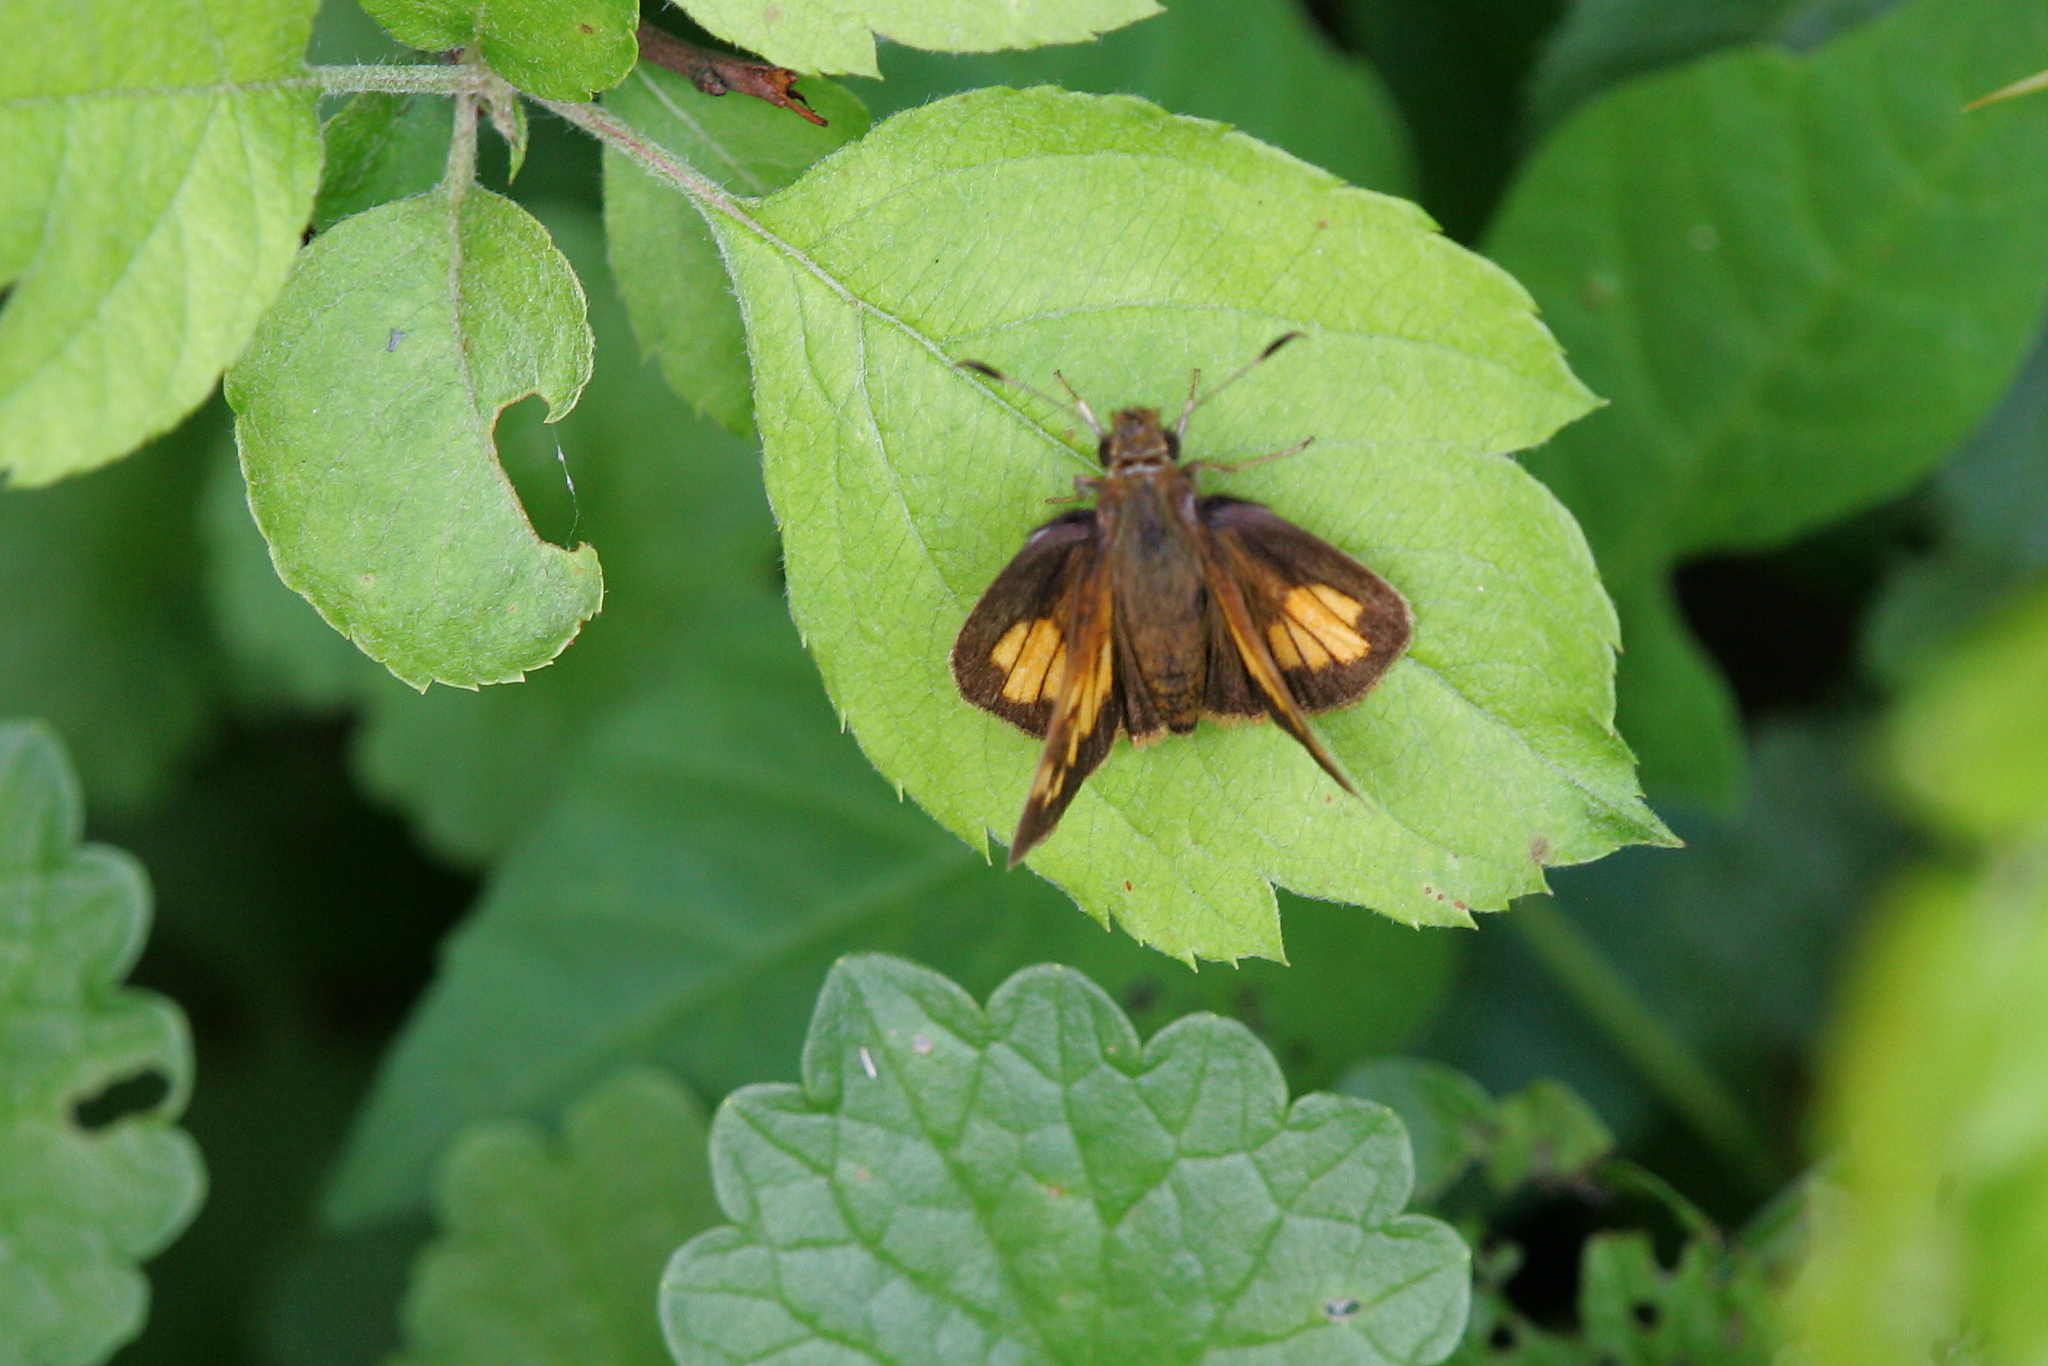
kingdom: Animalia
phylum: Arthropoda
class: Insecta
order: Lepidoptera
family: Hesperiidae
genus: Lon
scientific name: Lon hobomok
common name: Hobomok skipper
